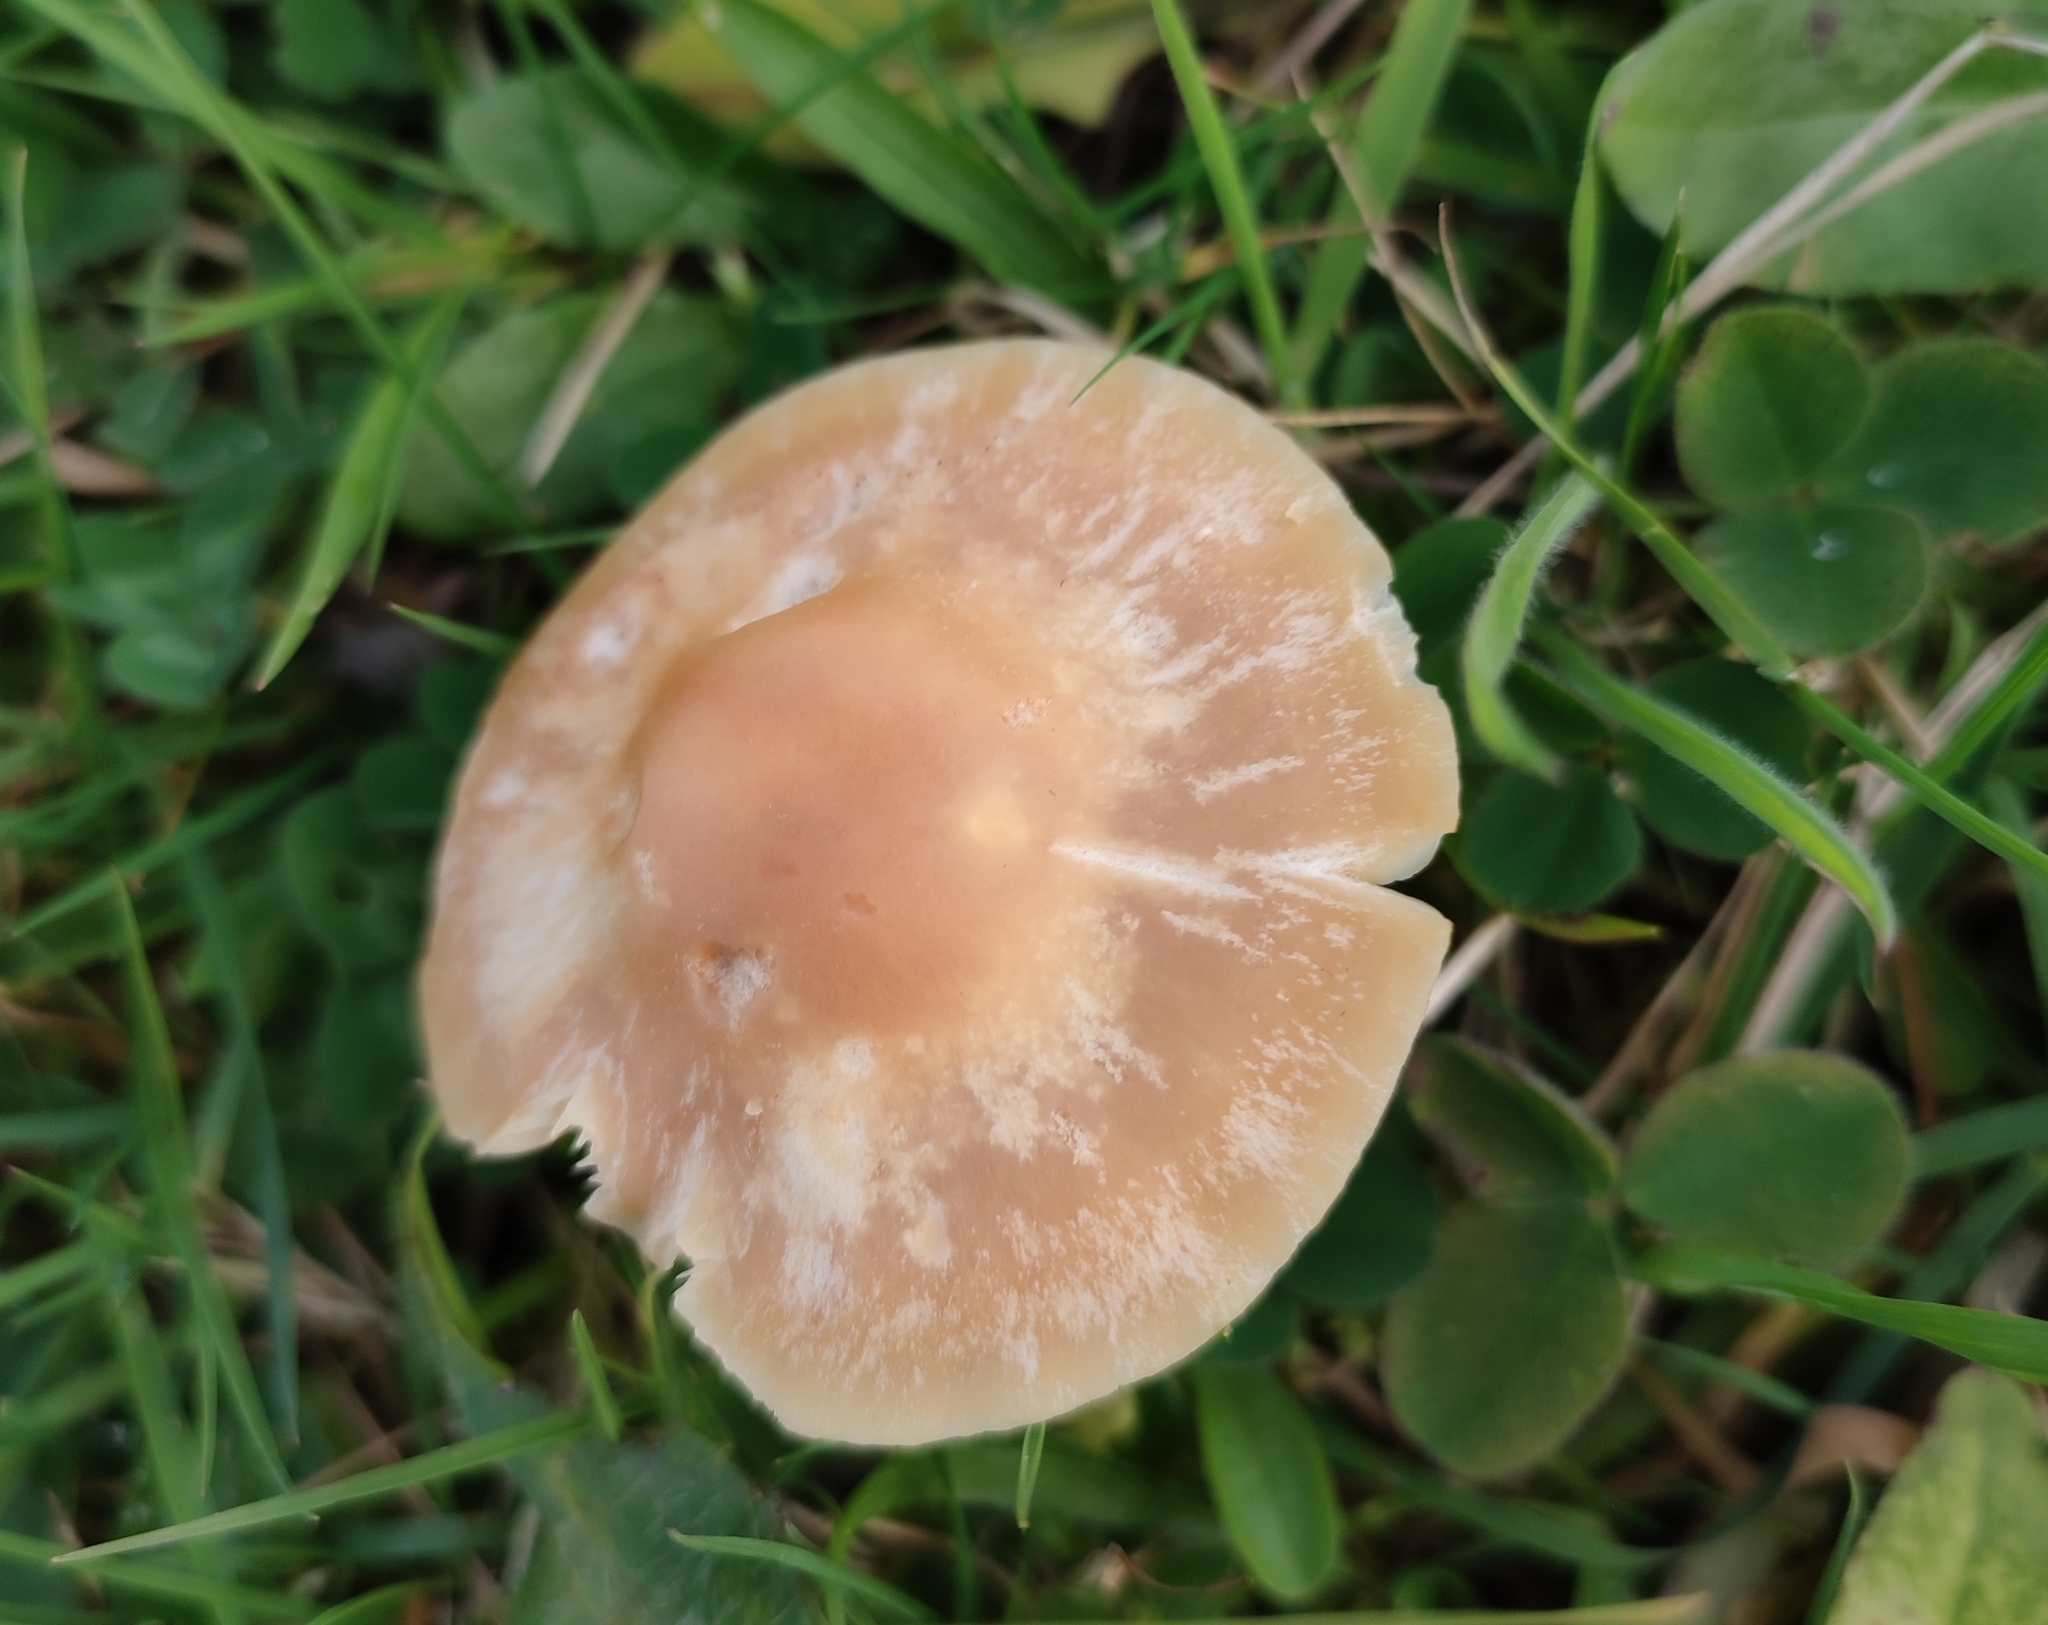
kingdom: Fungi
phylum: Basidiomycota
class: Agaricomycetes
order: Agaricales
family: Hygrophoraceae
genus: Cuphophyllus
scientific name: Cuphophyllus pratensis
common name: Meadow waxcap
